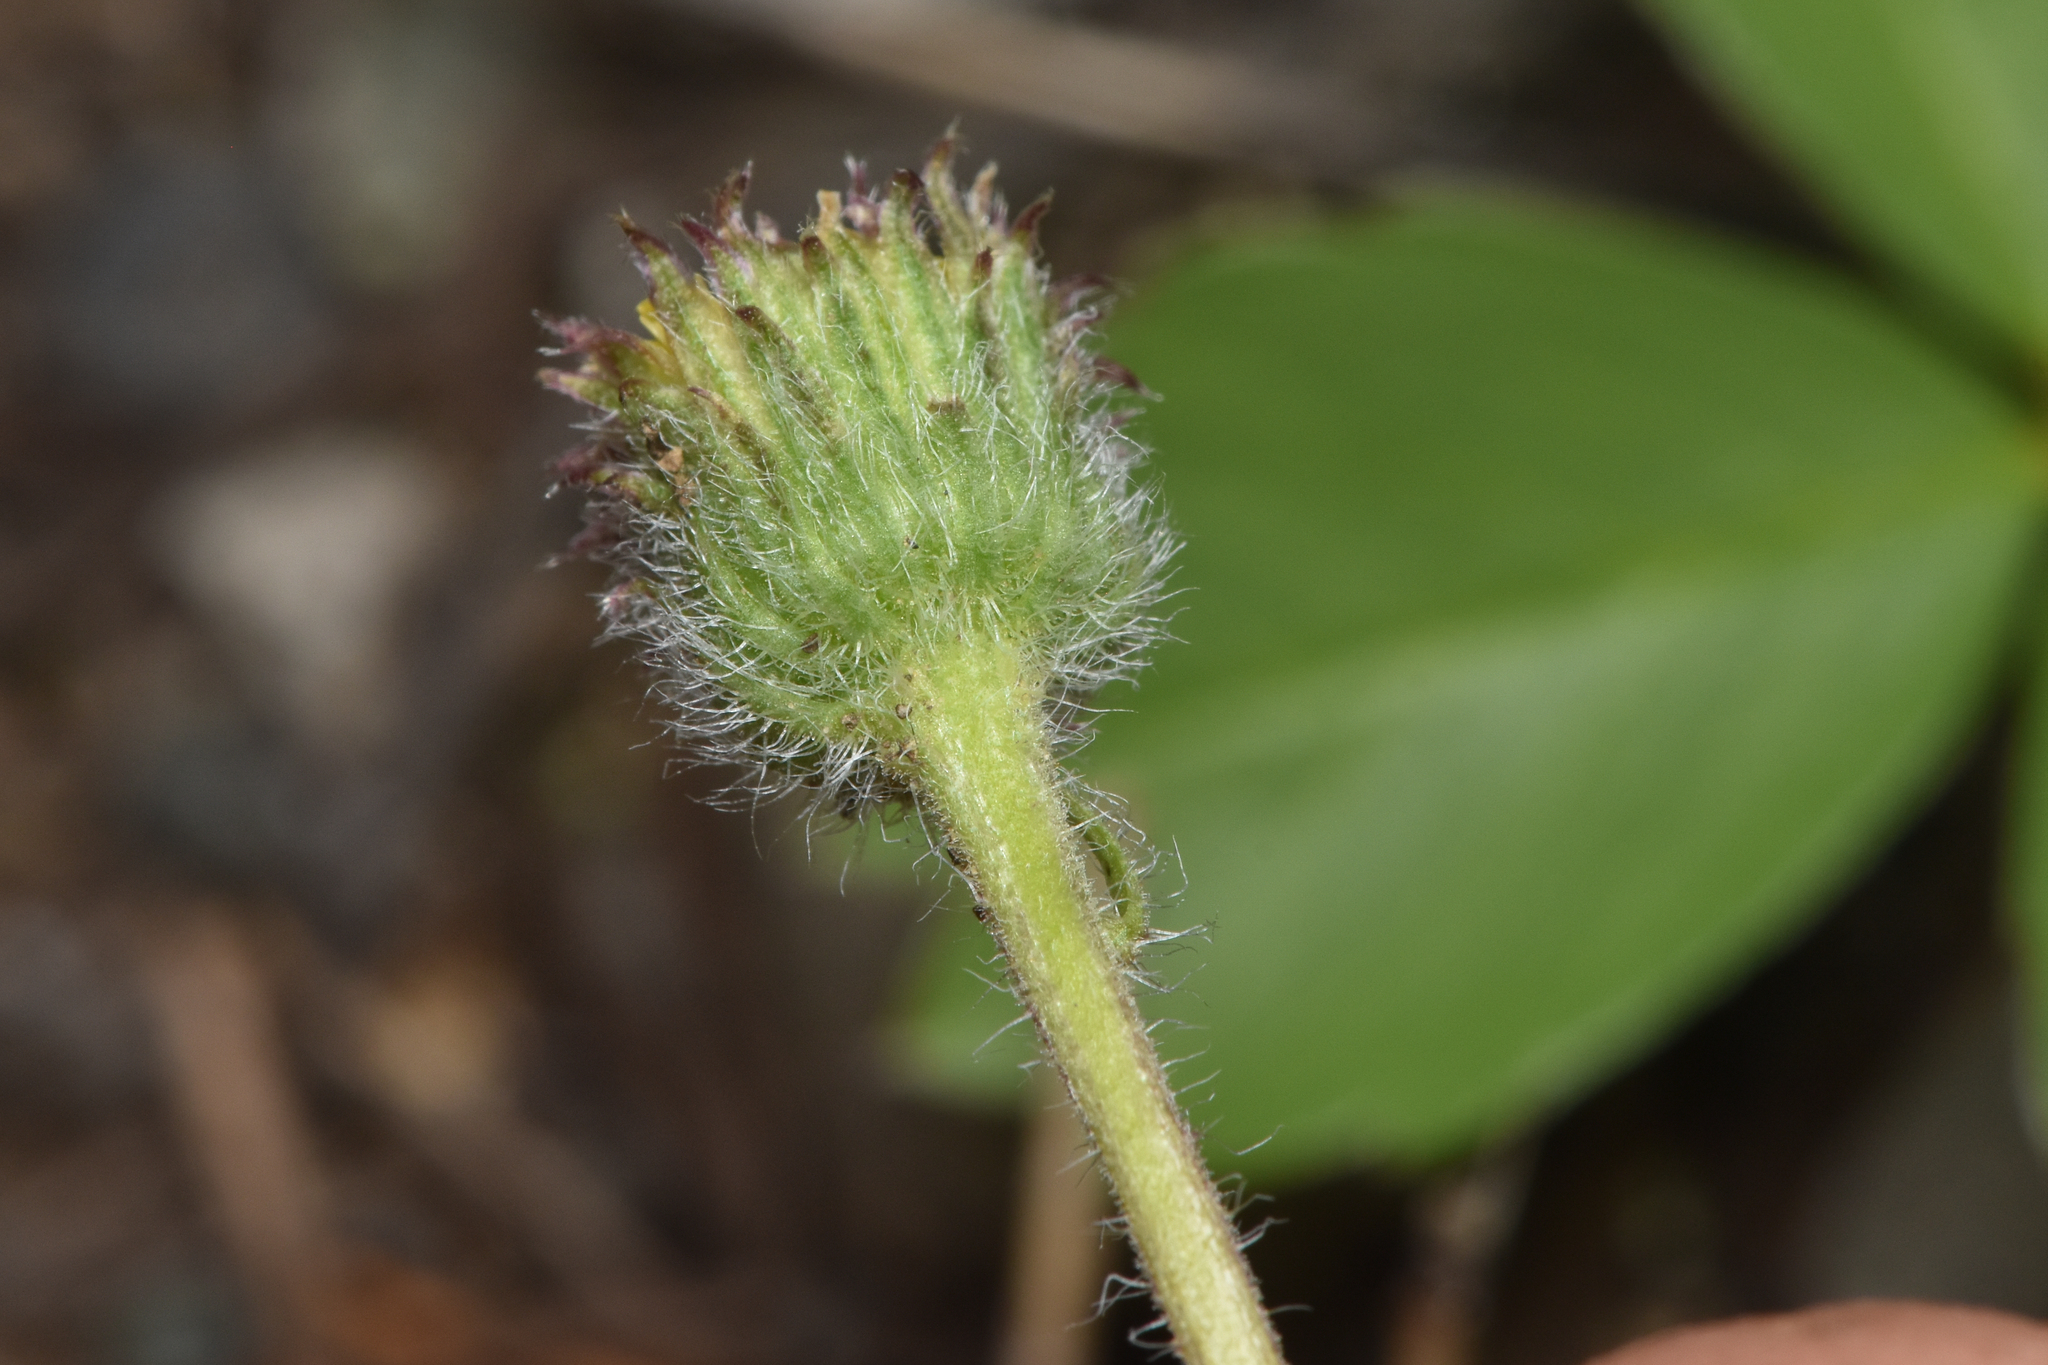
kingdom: Plantae
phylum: Tracheophyta
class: Magnoliopsida
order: Asterales
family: Asteraceae
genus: Erigeron
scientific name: Erigeron compositus
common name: Dwarf mountain fleabane
